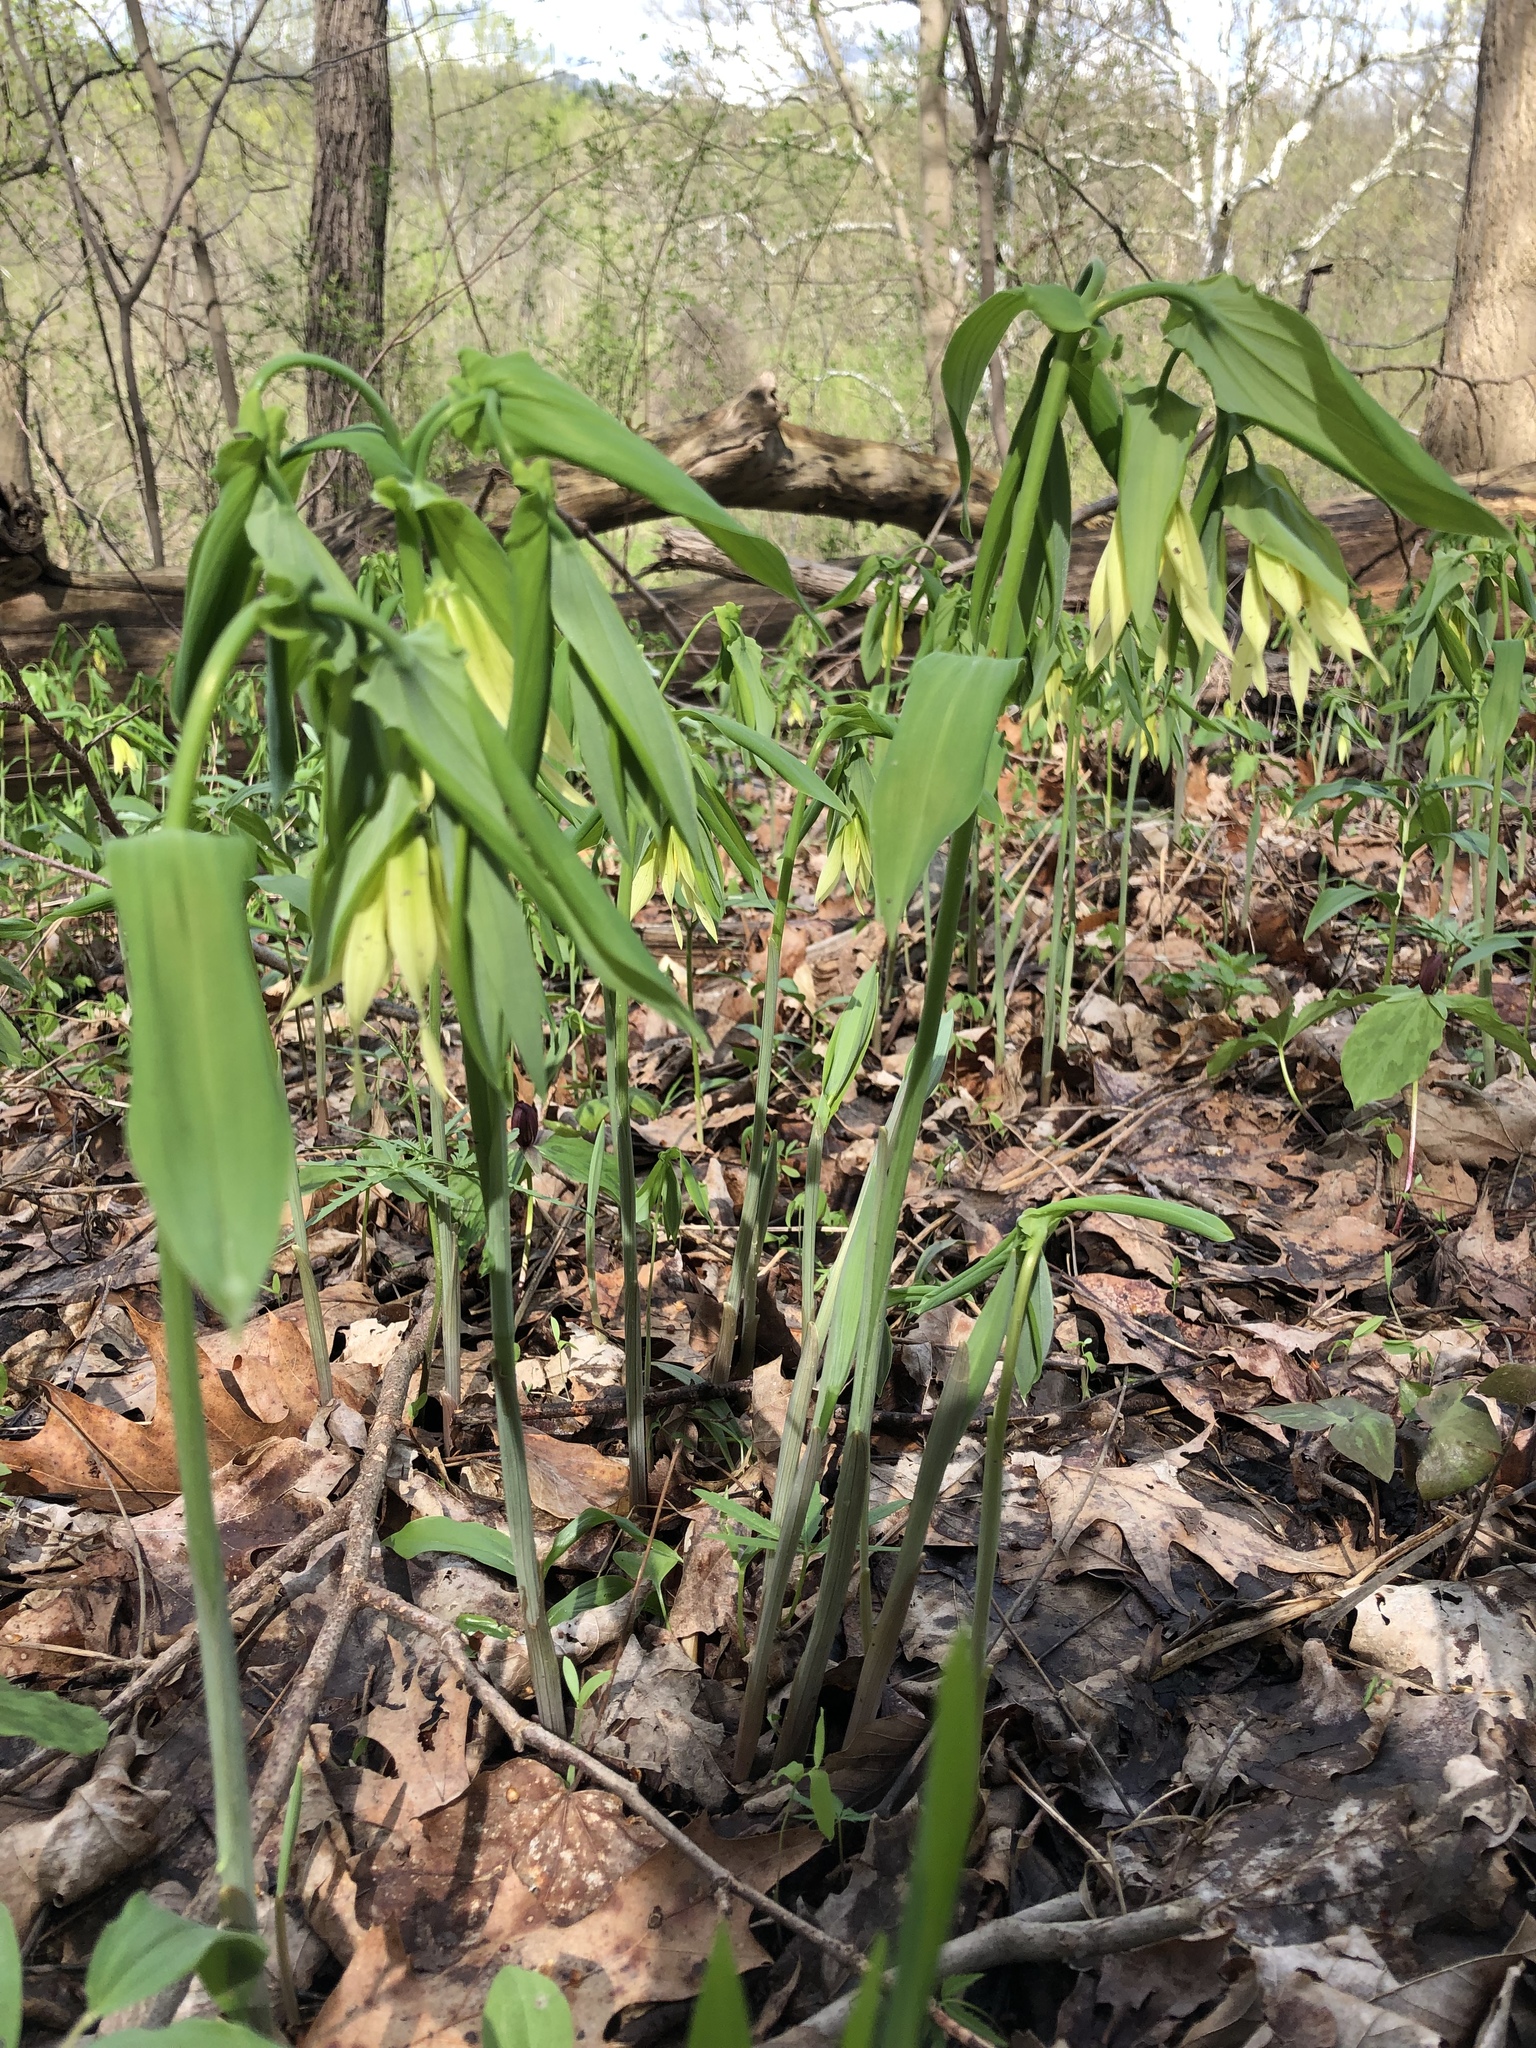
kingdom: Plantae
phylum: Tracheophyta
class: Liliopsida
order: Liliales
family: Colchicaceae
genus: Uvularia
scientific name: Uvularia grandiflora
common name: Bellwort
